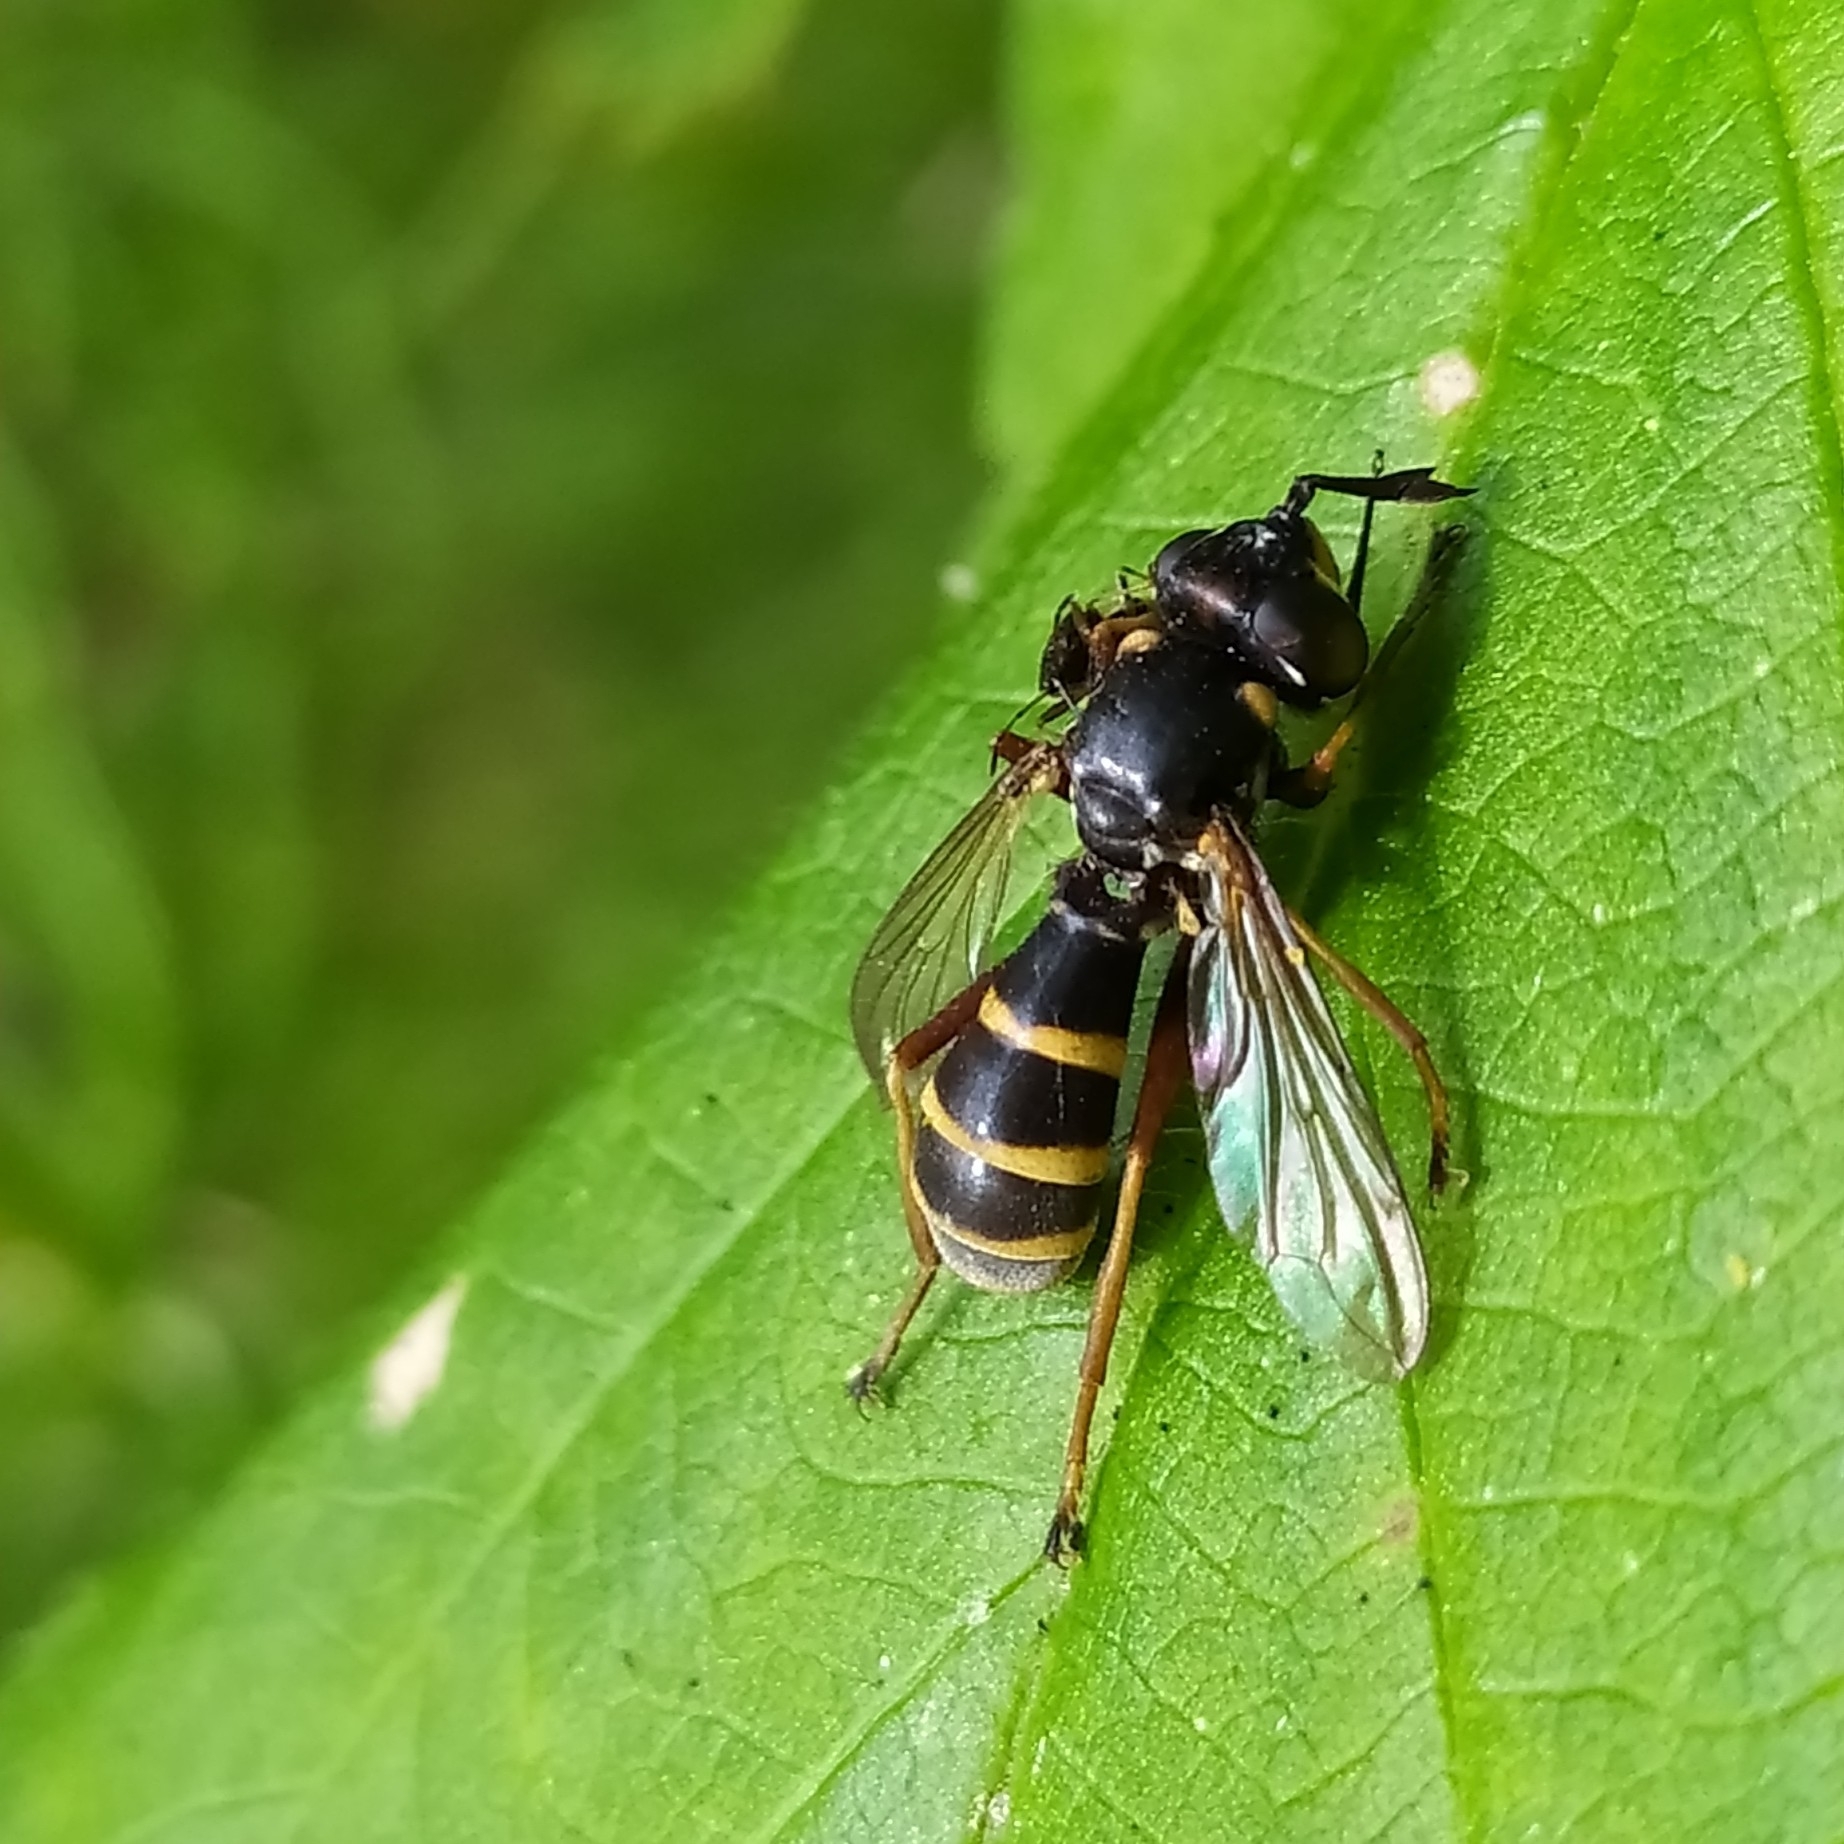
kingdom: Animalia
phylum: Arthropoda
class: Insecta
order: Diptera
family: Conopidae
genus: Conops
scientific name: Conops quadrifasciatus
